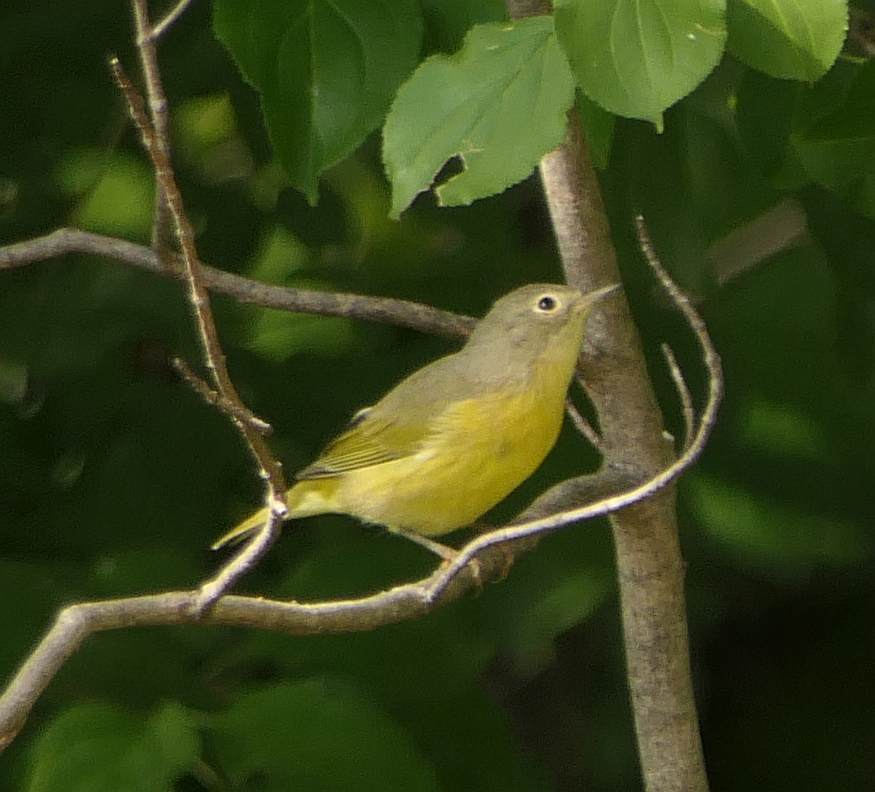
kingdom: Animalia
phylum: Chordata
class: Aves
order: Passeriformes
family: Parulidae
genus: Leiothlypis
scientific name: Leiothlypis ruficapilla
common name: Nashville warbler
